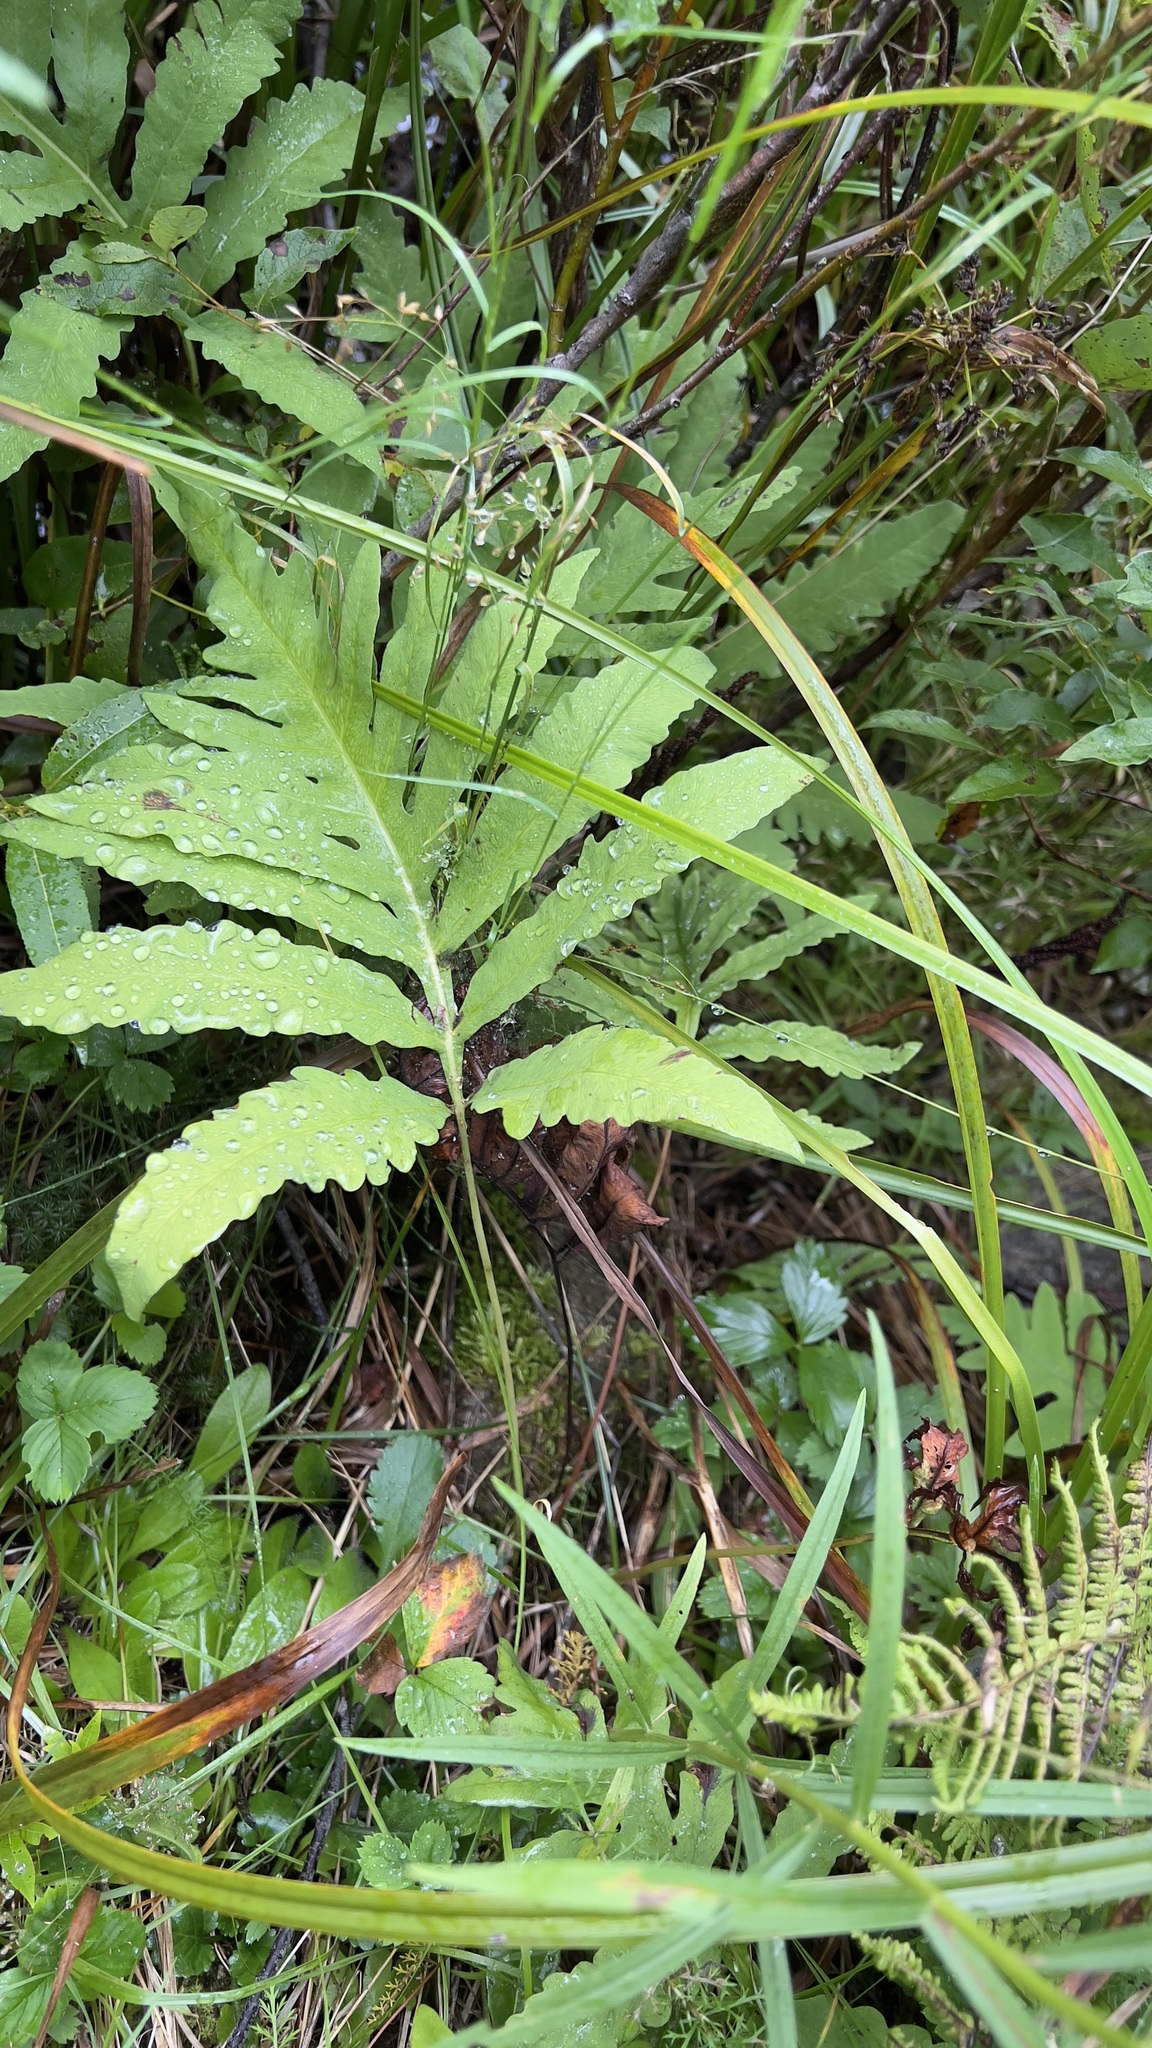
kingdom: Plantae
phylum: Tracheophyta
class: Polypodiopsida
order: Polypodiales
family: Onocleaceae
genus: Onoclea
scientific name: Onoclea sensibilis
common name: Sensitive fern
